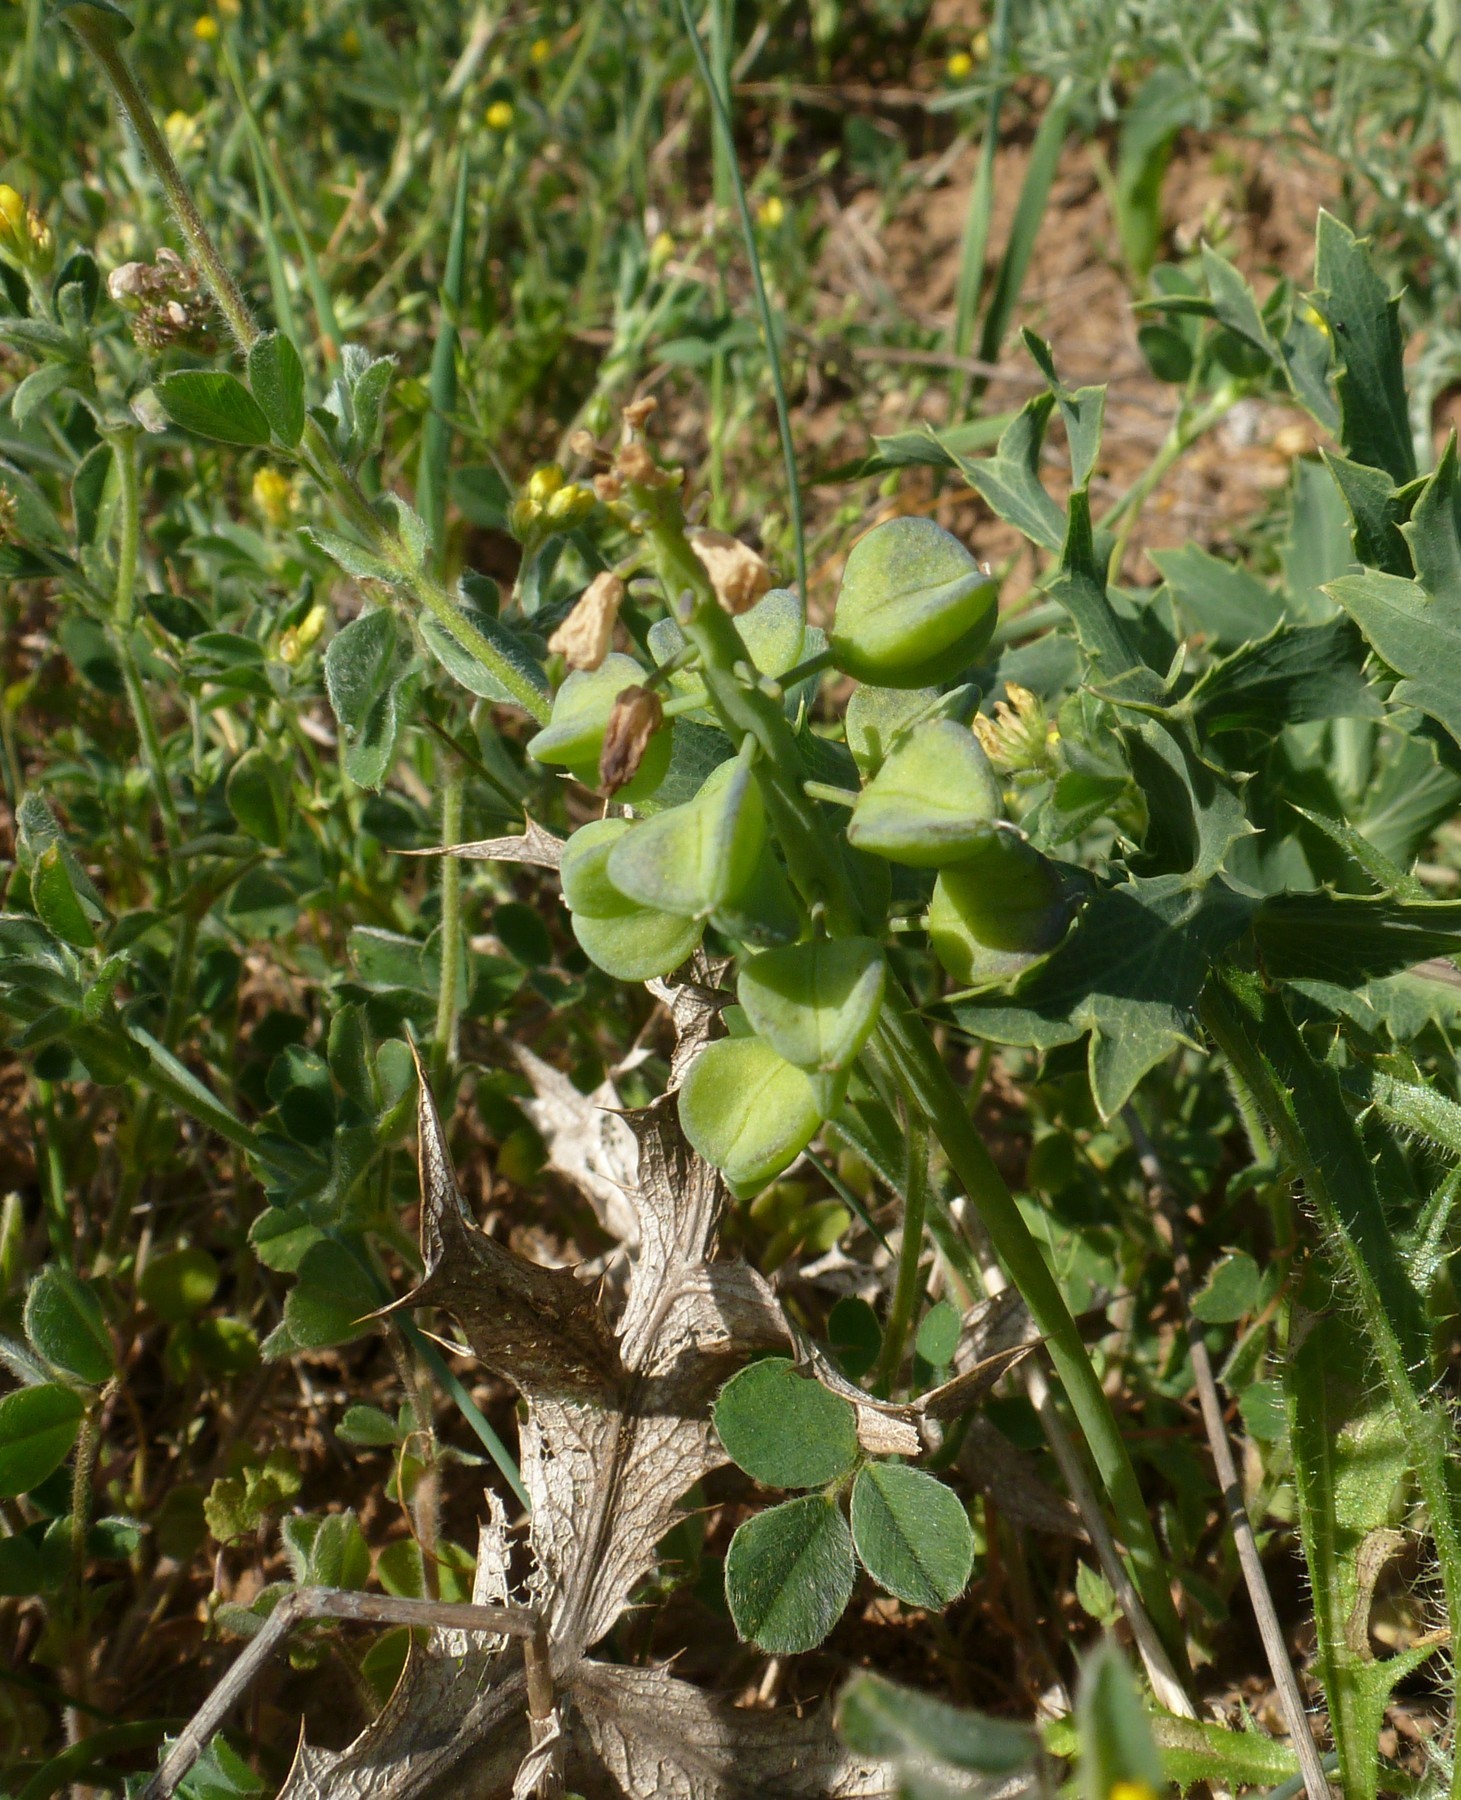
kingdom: Plantae
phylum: Tracheophyta
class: Liliopsida
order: Asparagales
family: Asparagaceae
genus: Muscari
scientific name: Muscari neglectum
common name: Grape-hyacinth
